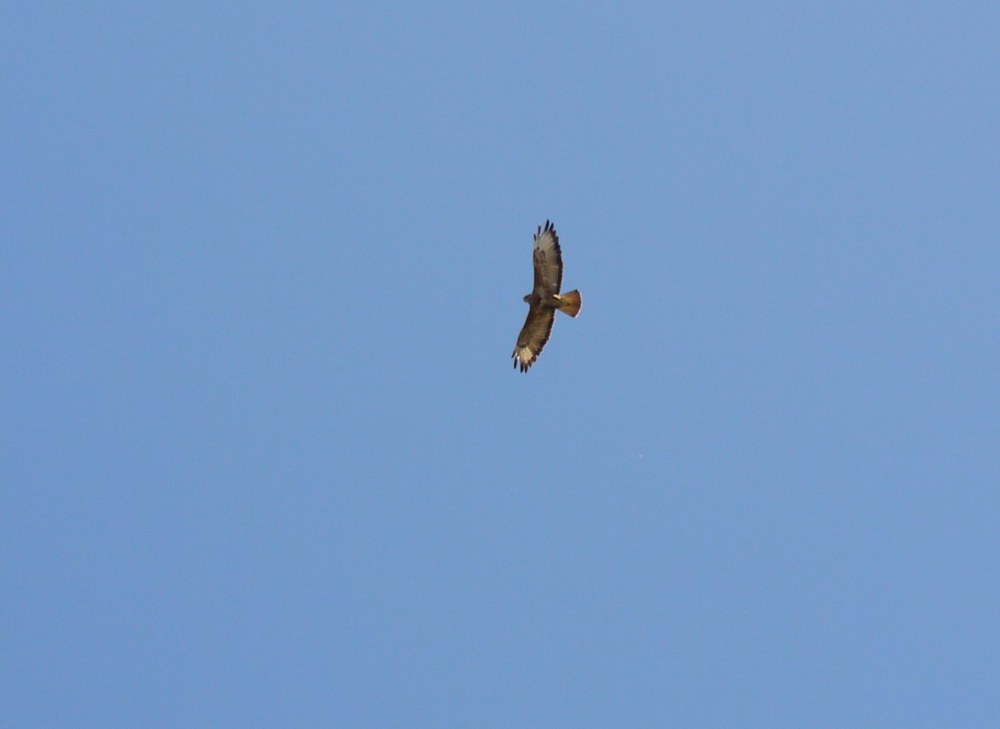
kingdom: Animalia
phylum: Chordata
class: Aves
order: Accipitriformes
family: Accipitridae
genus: Buteo
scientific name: Buteo rufinus
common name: Long-legged buzzard
